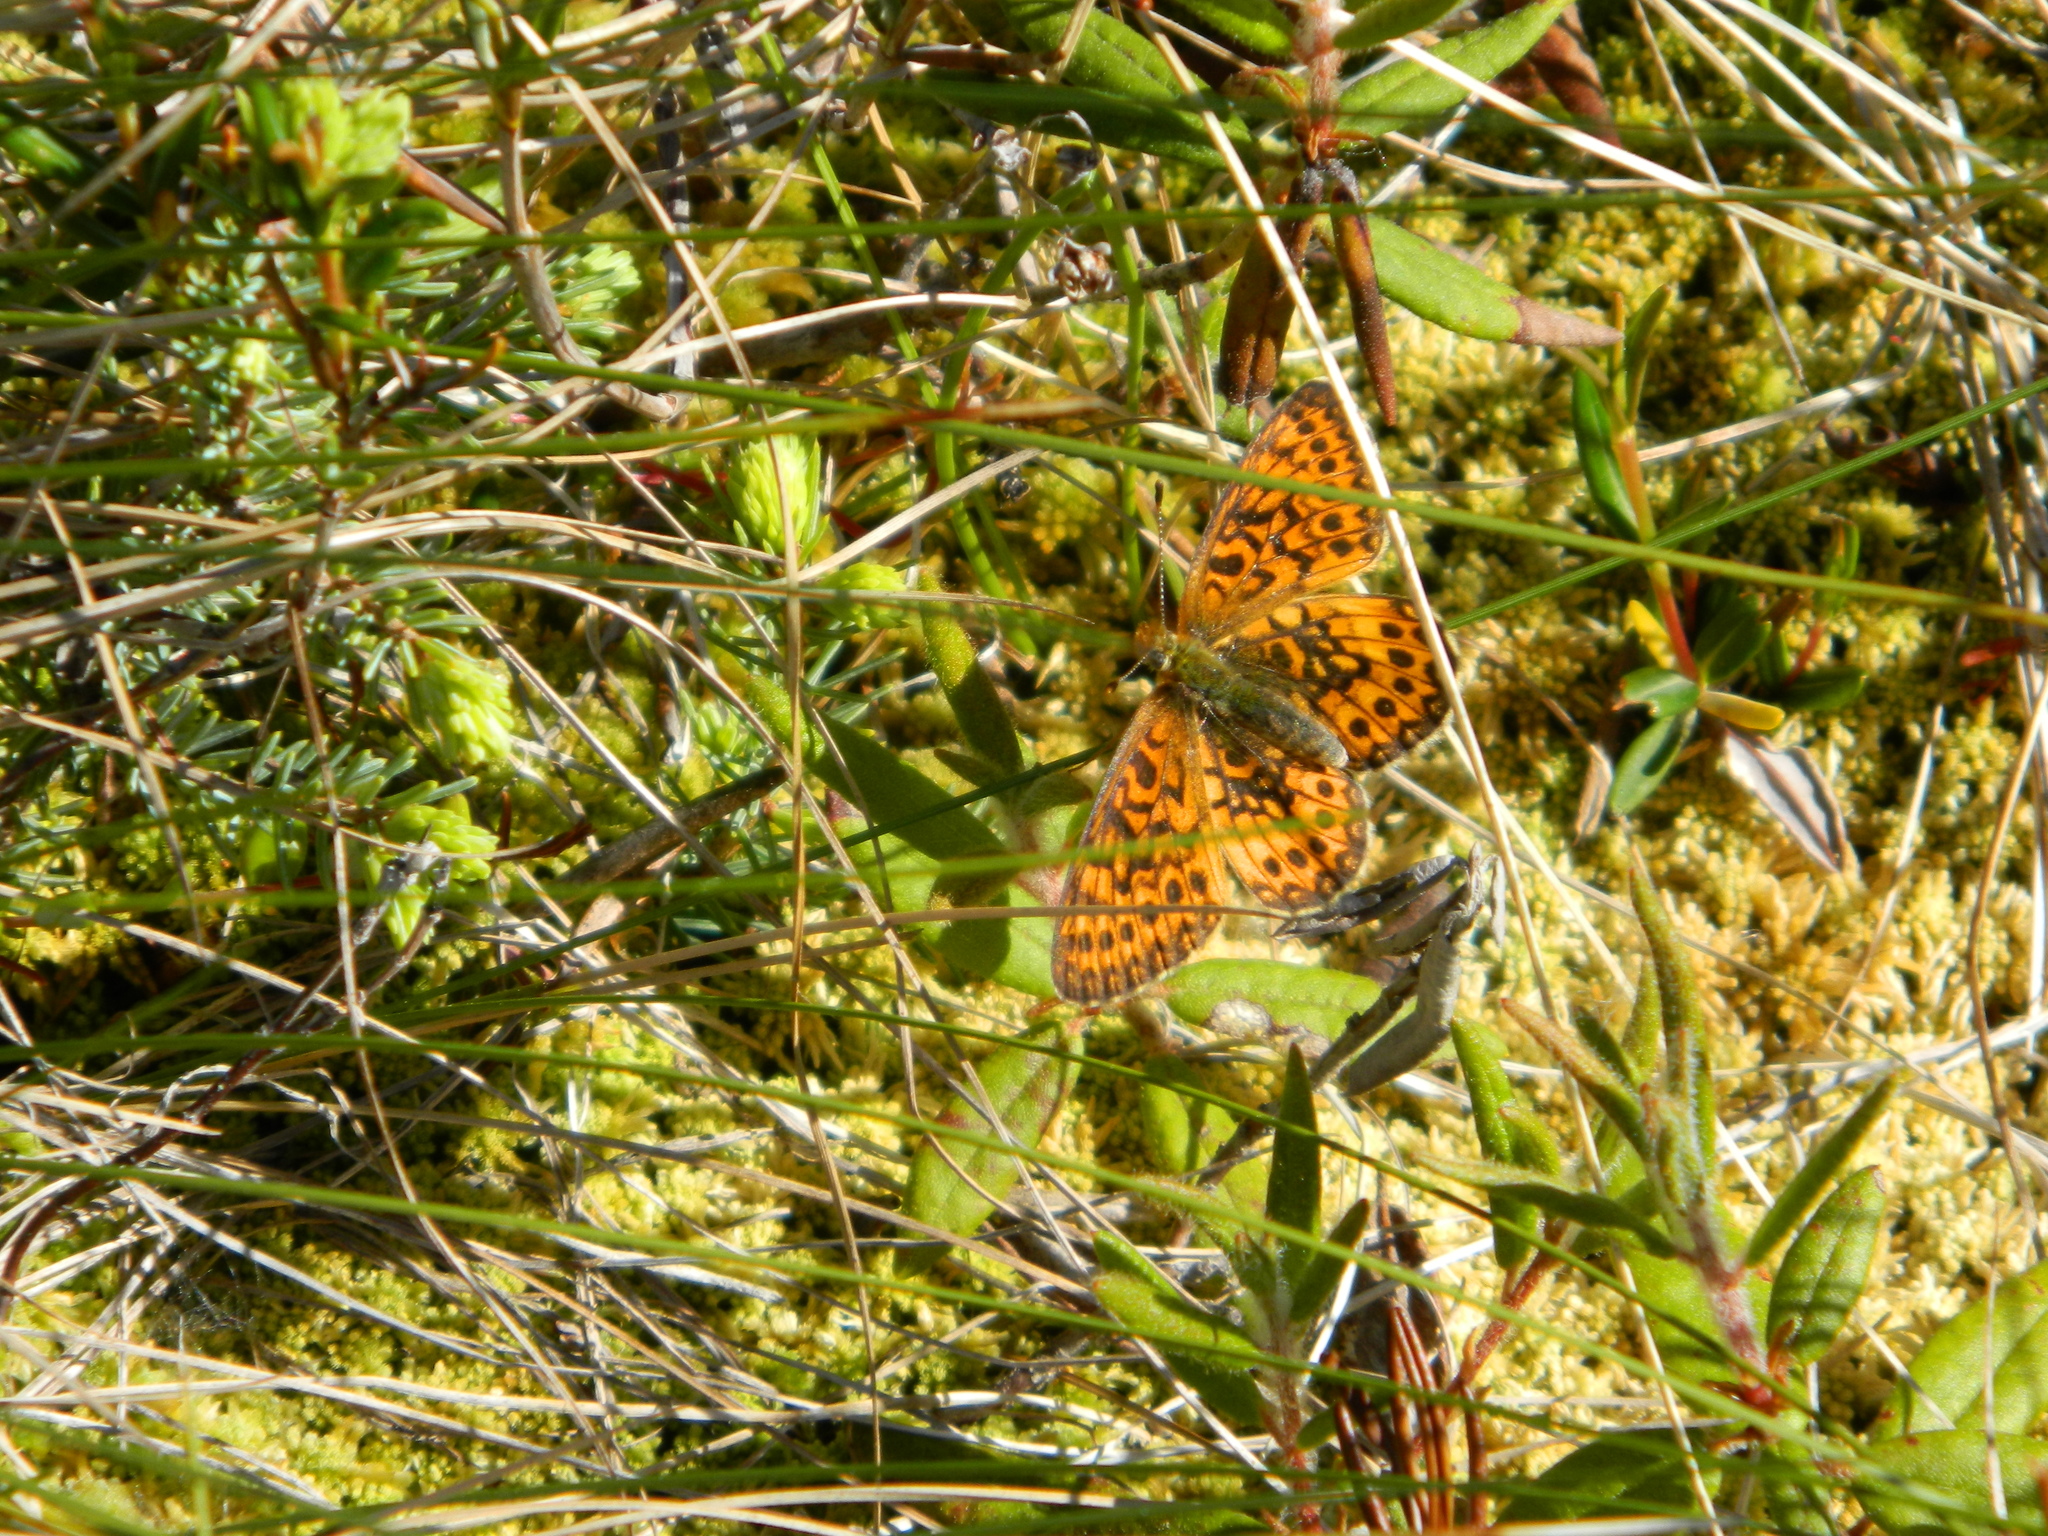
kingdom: Animalia
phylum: Arthropoda
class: Insecta
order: Lepidoptera
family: Nymphalidae
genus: Boloria
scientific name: Boloria eunomia
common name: Bog fritillary
